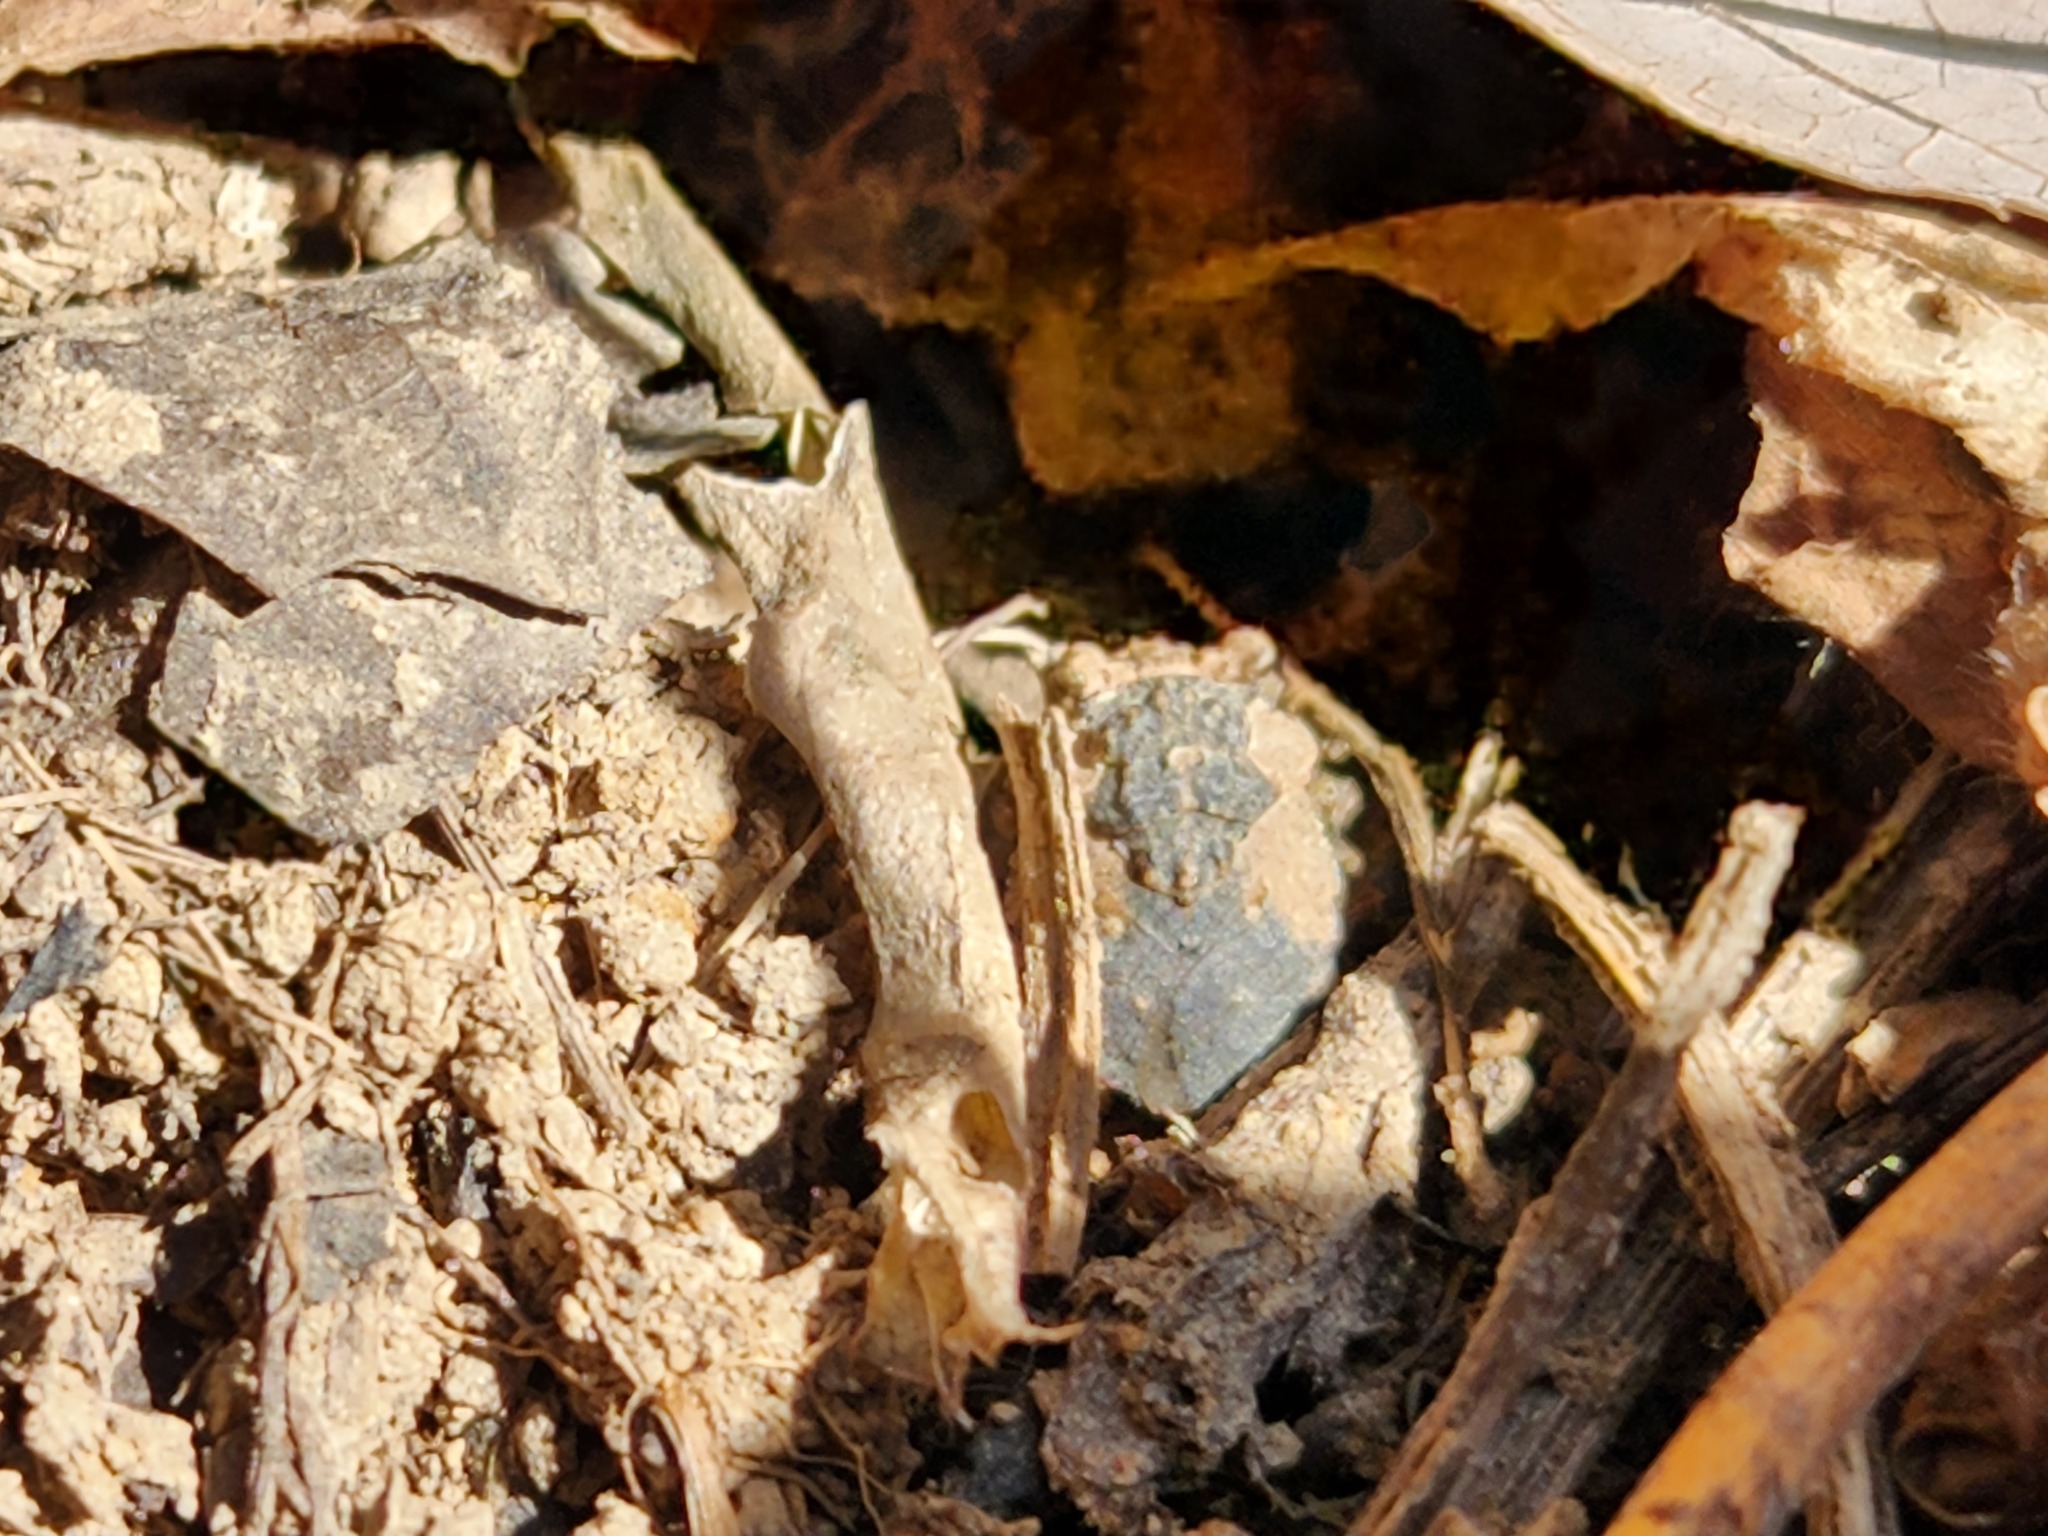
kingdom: Animalia
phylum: Arthropoda
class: Insecta
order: Hemiptera
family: Gelastocoridae
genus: Gelastocoris
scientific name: Gelastocoris oculatus
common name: Toad bug
